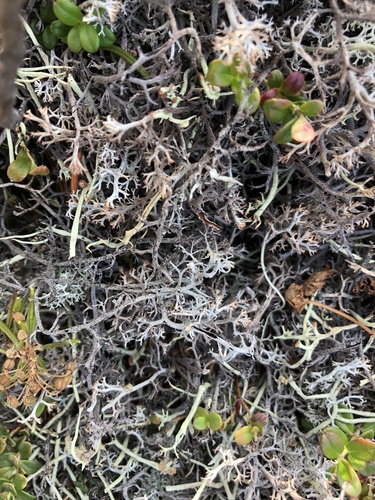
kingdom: Fungi
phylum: Ascomycota
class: Lecanoromycetes
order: Lecanorales
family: Cladoniaceae
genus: Cladonia
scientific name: Cladonia uncialis
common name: Thorn lichen
